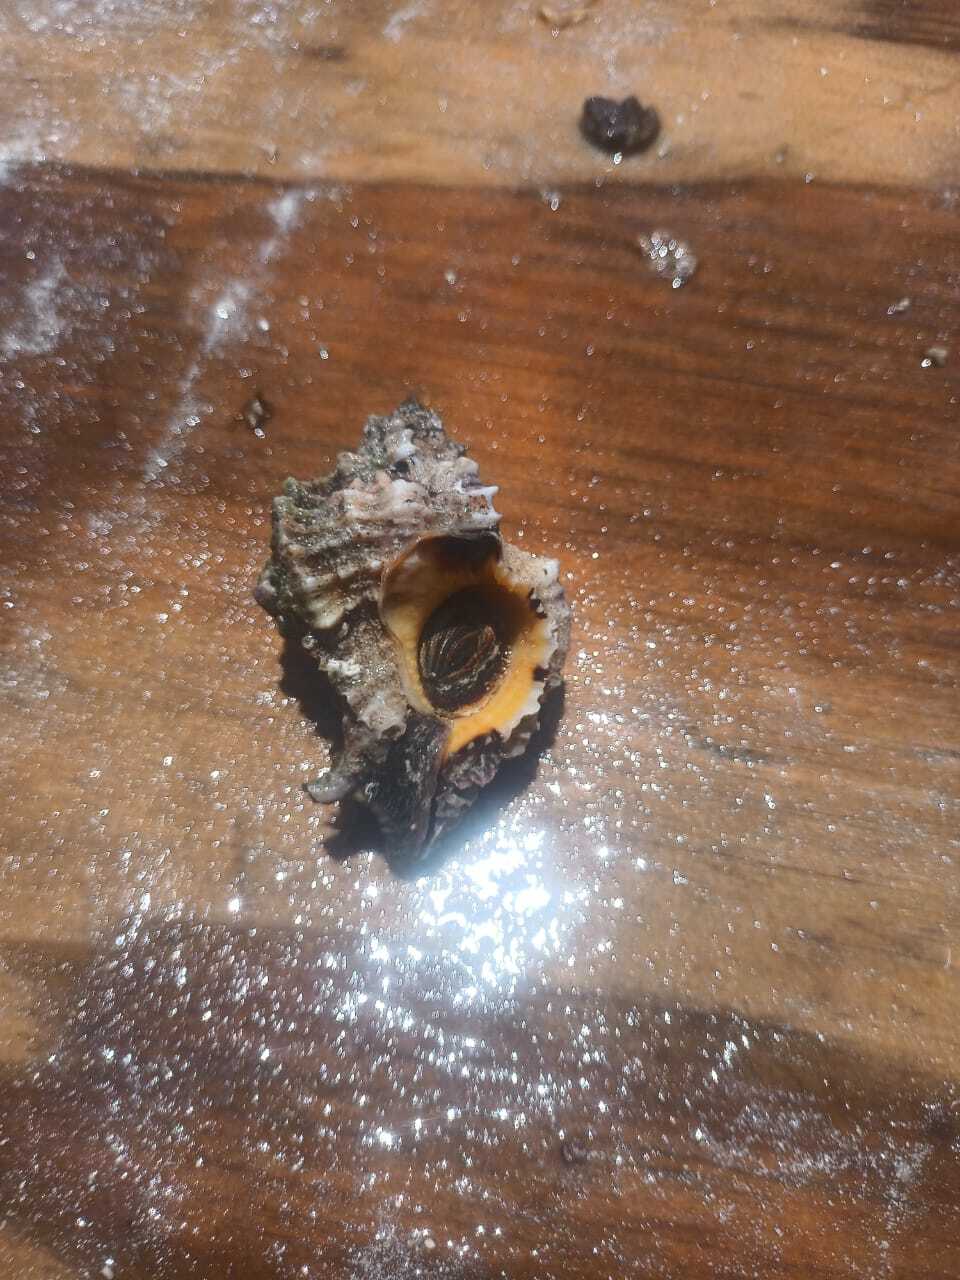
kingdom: Animalia
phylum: Mollusca
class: Gastropoda
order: Neogastropoda
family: Muricidae
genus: Phyllonotus
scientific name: Phyllonotus pomum
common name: Apple murex
